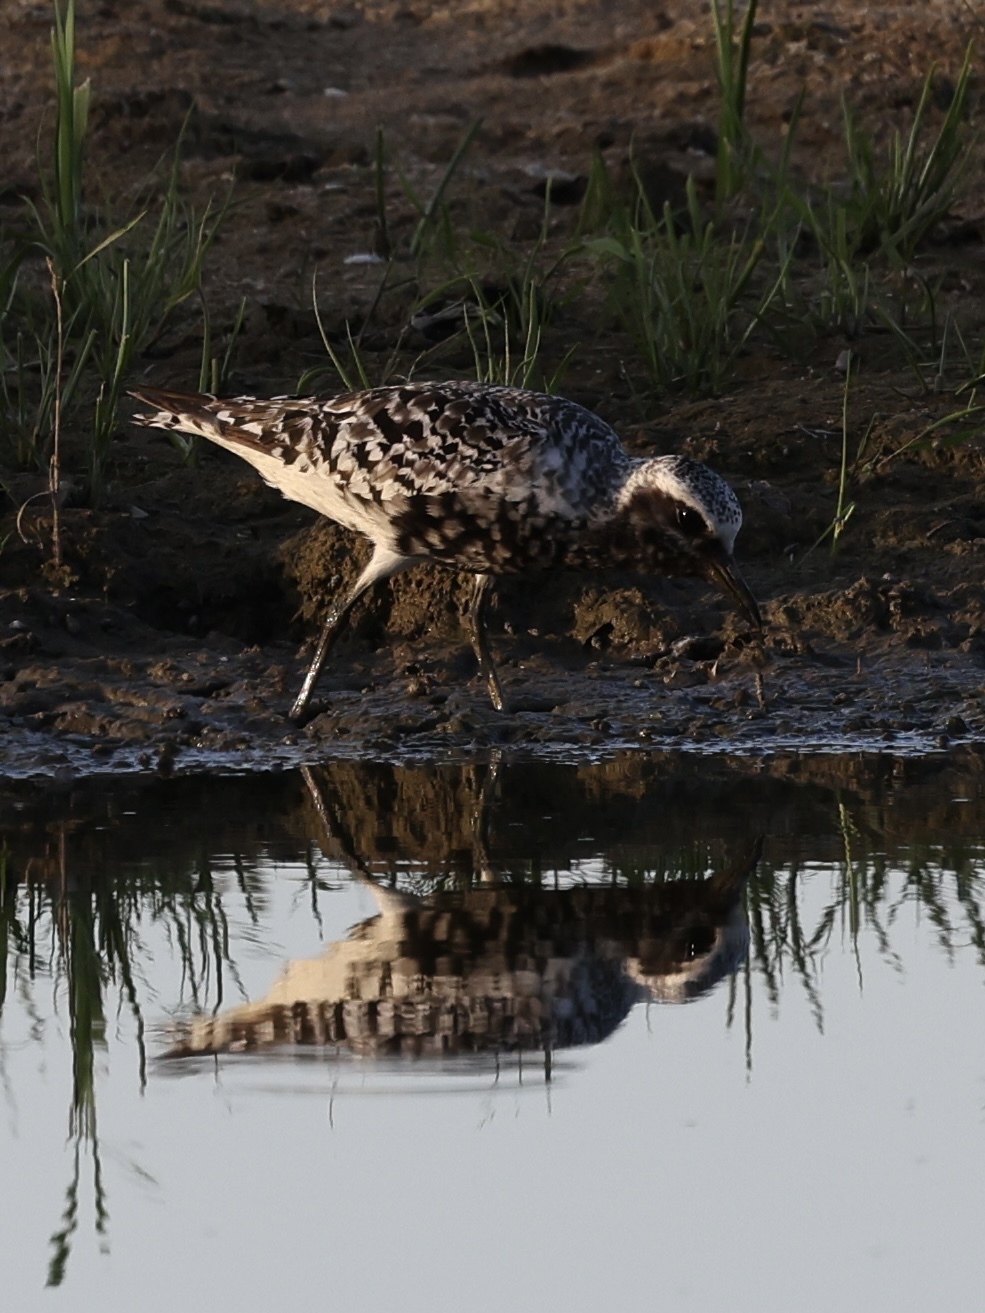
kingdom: Animalia
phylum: Chordata
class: Aves
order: Charadriiformes
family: Charadriidae
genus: Pluvialis
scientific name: Pluvialis squatarola
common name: Grey plover
